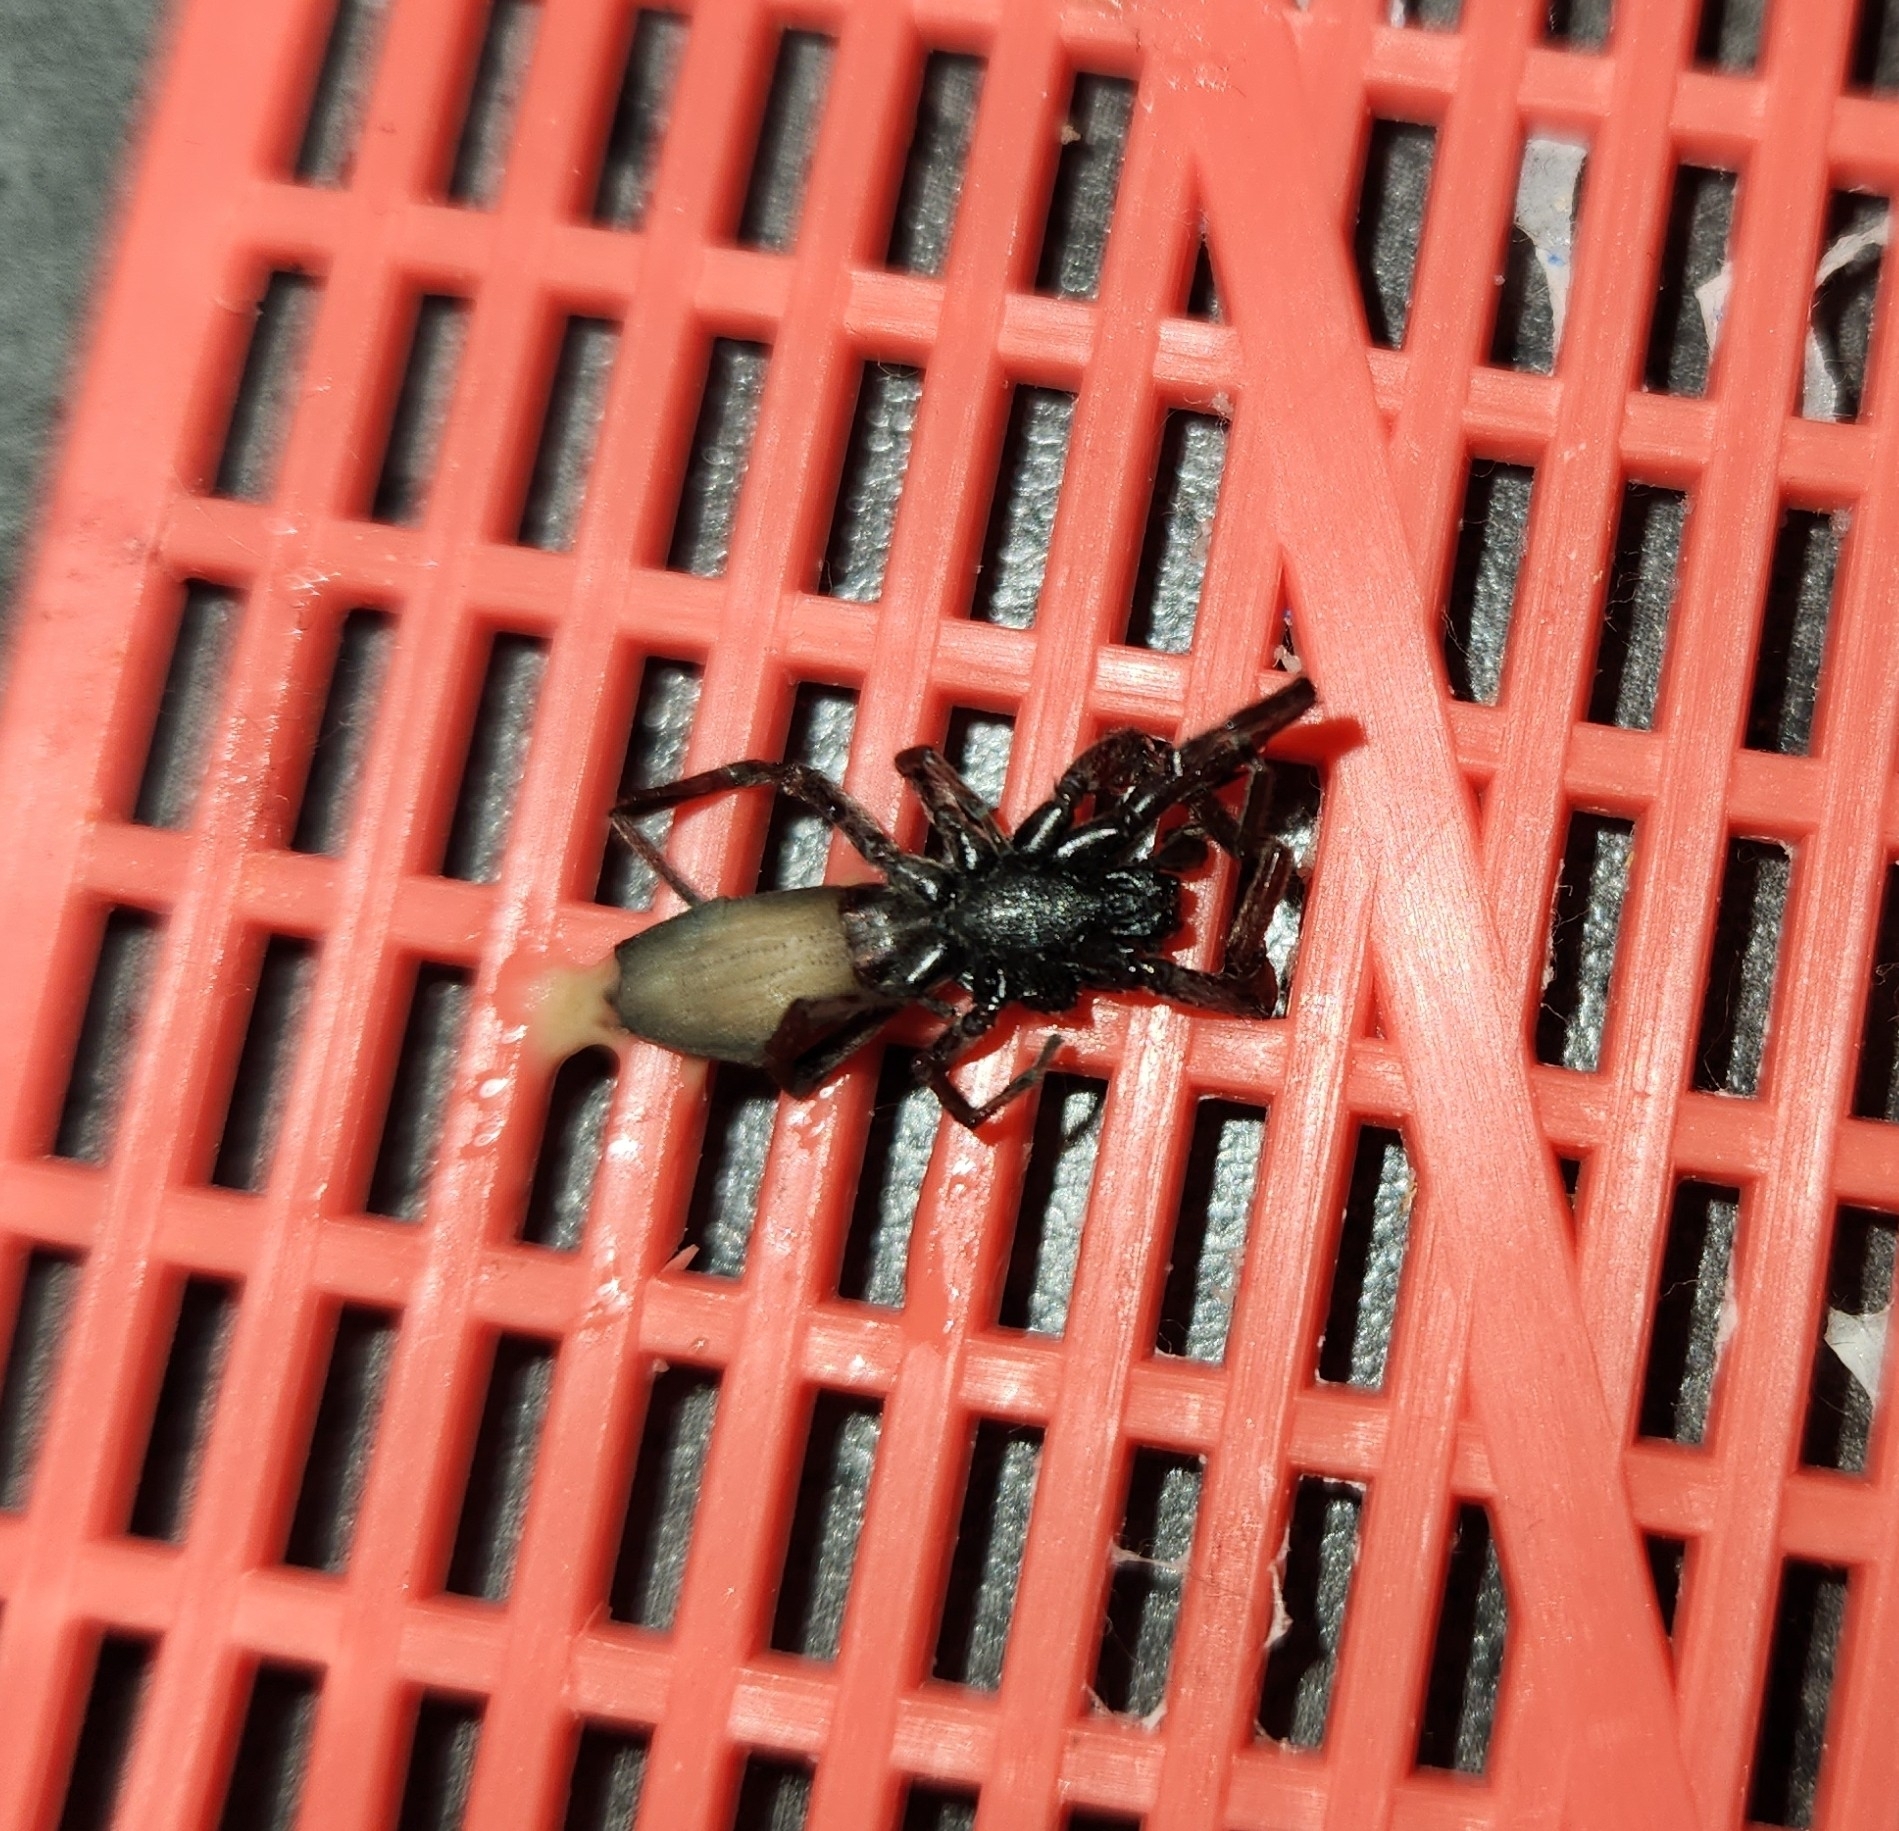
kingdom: Animalia
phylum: Arthropoda
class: Arachnida
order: Araneae
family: Lamponidae
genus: Lampona
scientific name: Lampona murina
